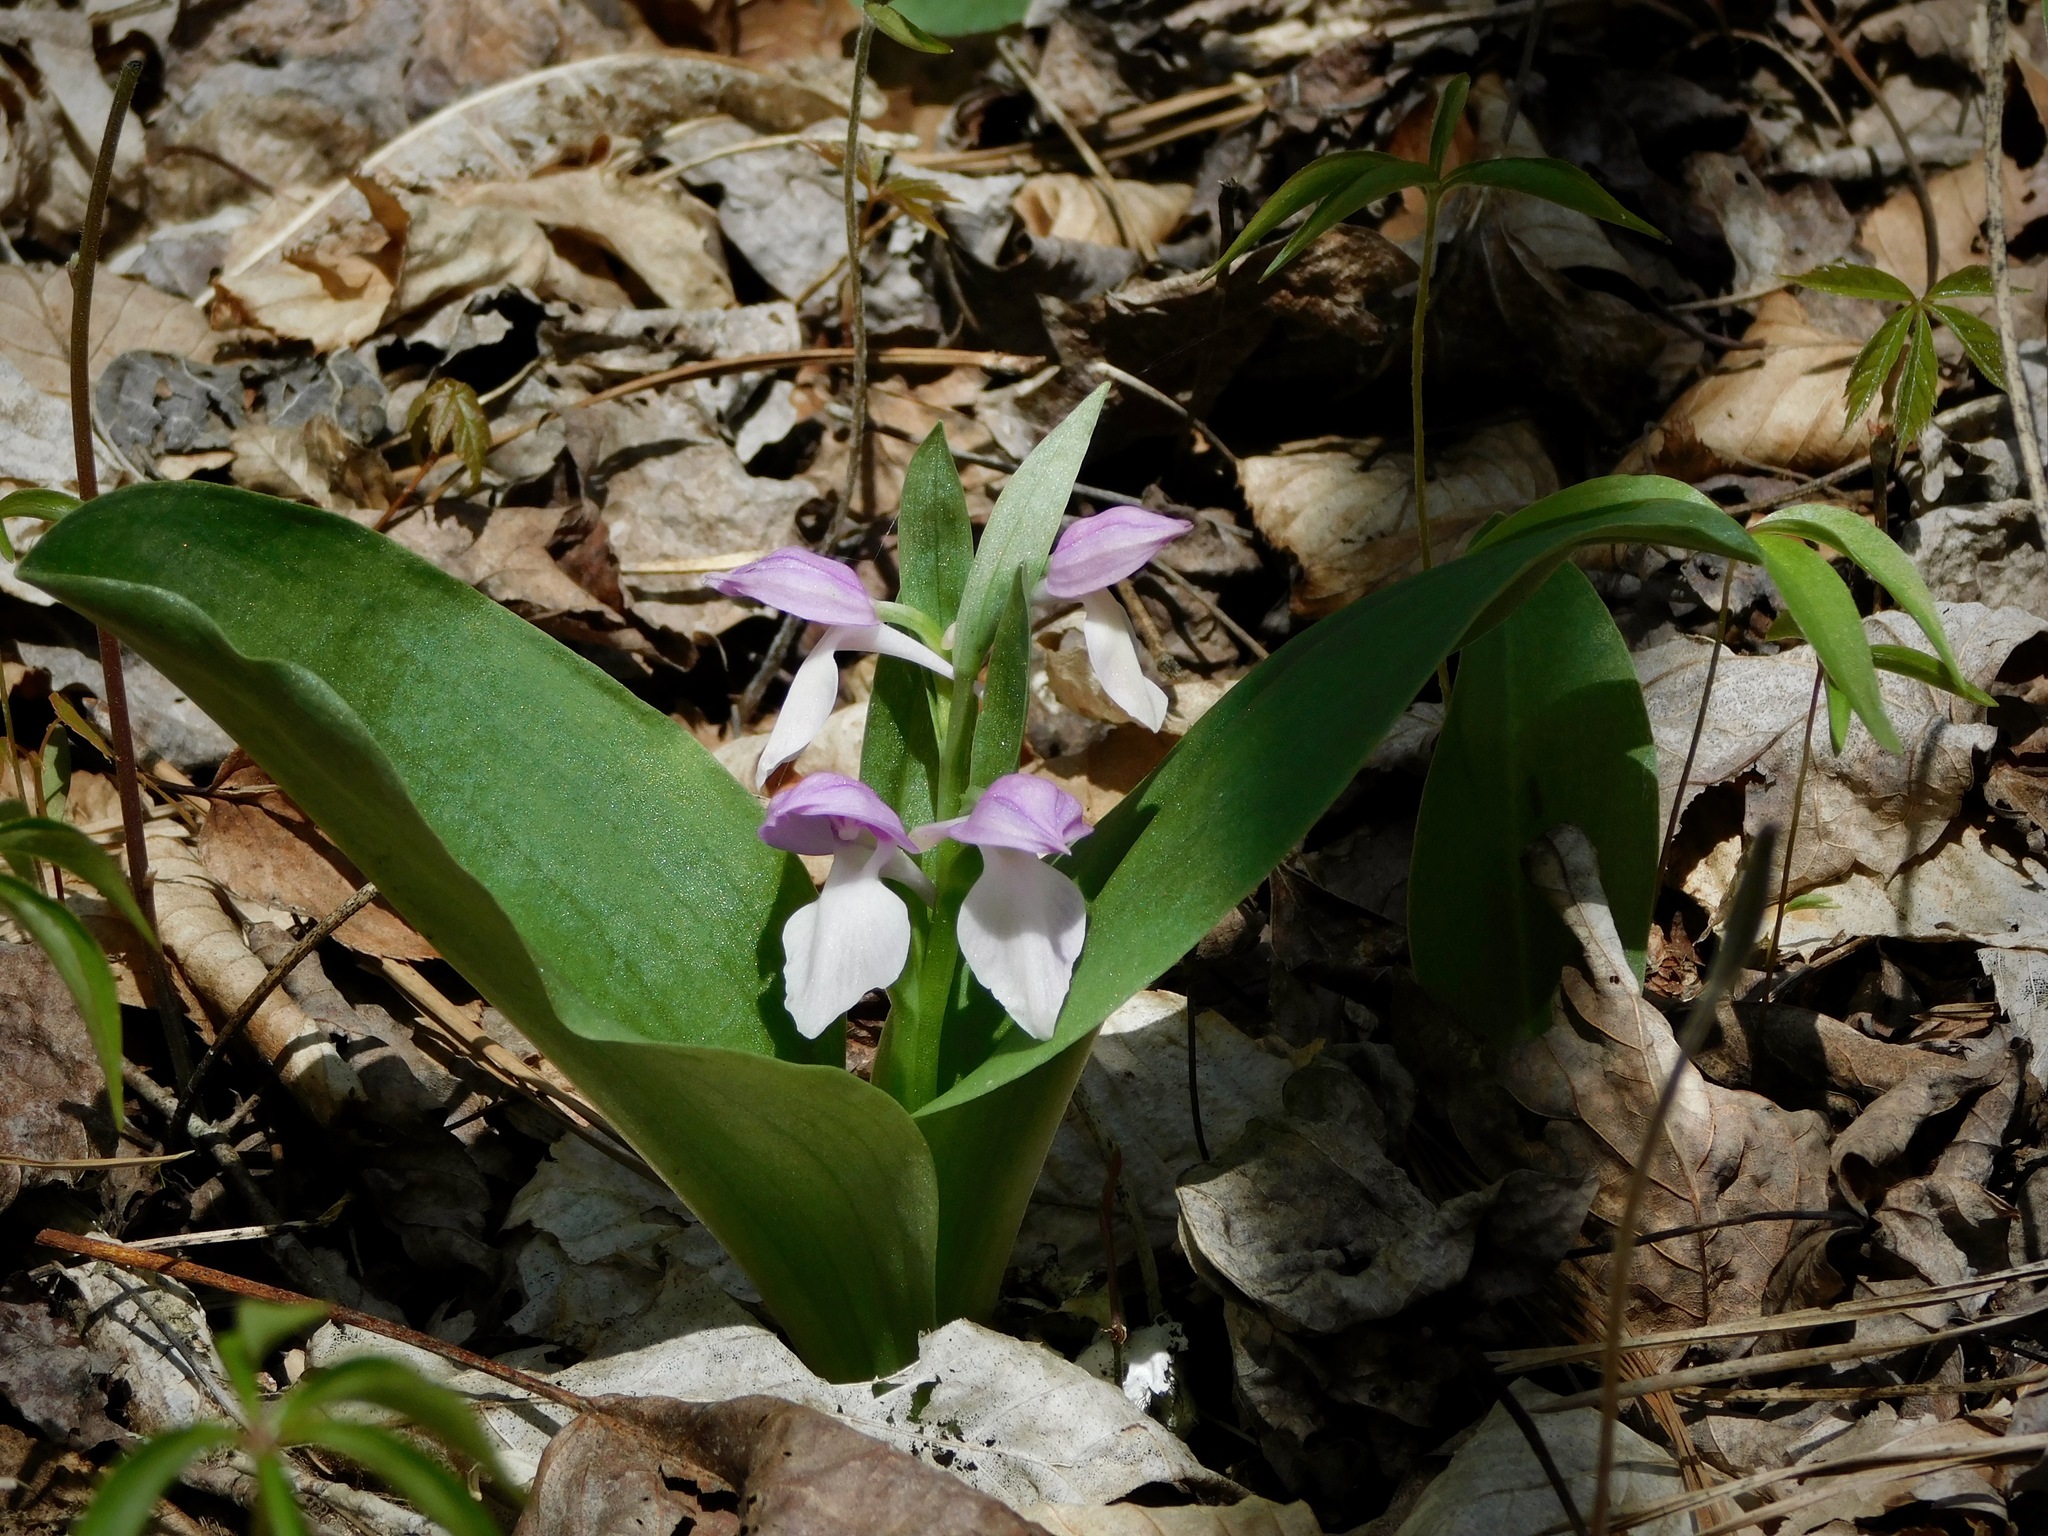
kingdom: Plantae
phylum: Tracheophyta
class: Liliopsida
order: Asparagales
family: Orchidaceae
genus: Galearis
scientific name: Galearis spectabilis
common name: Purple-hooded orchis
